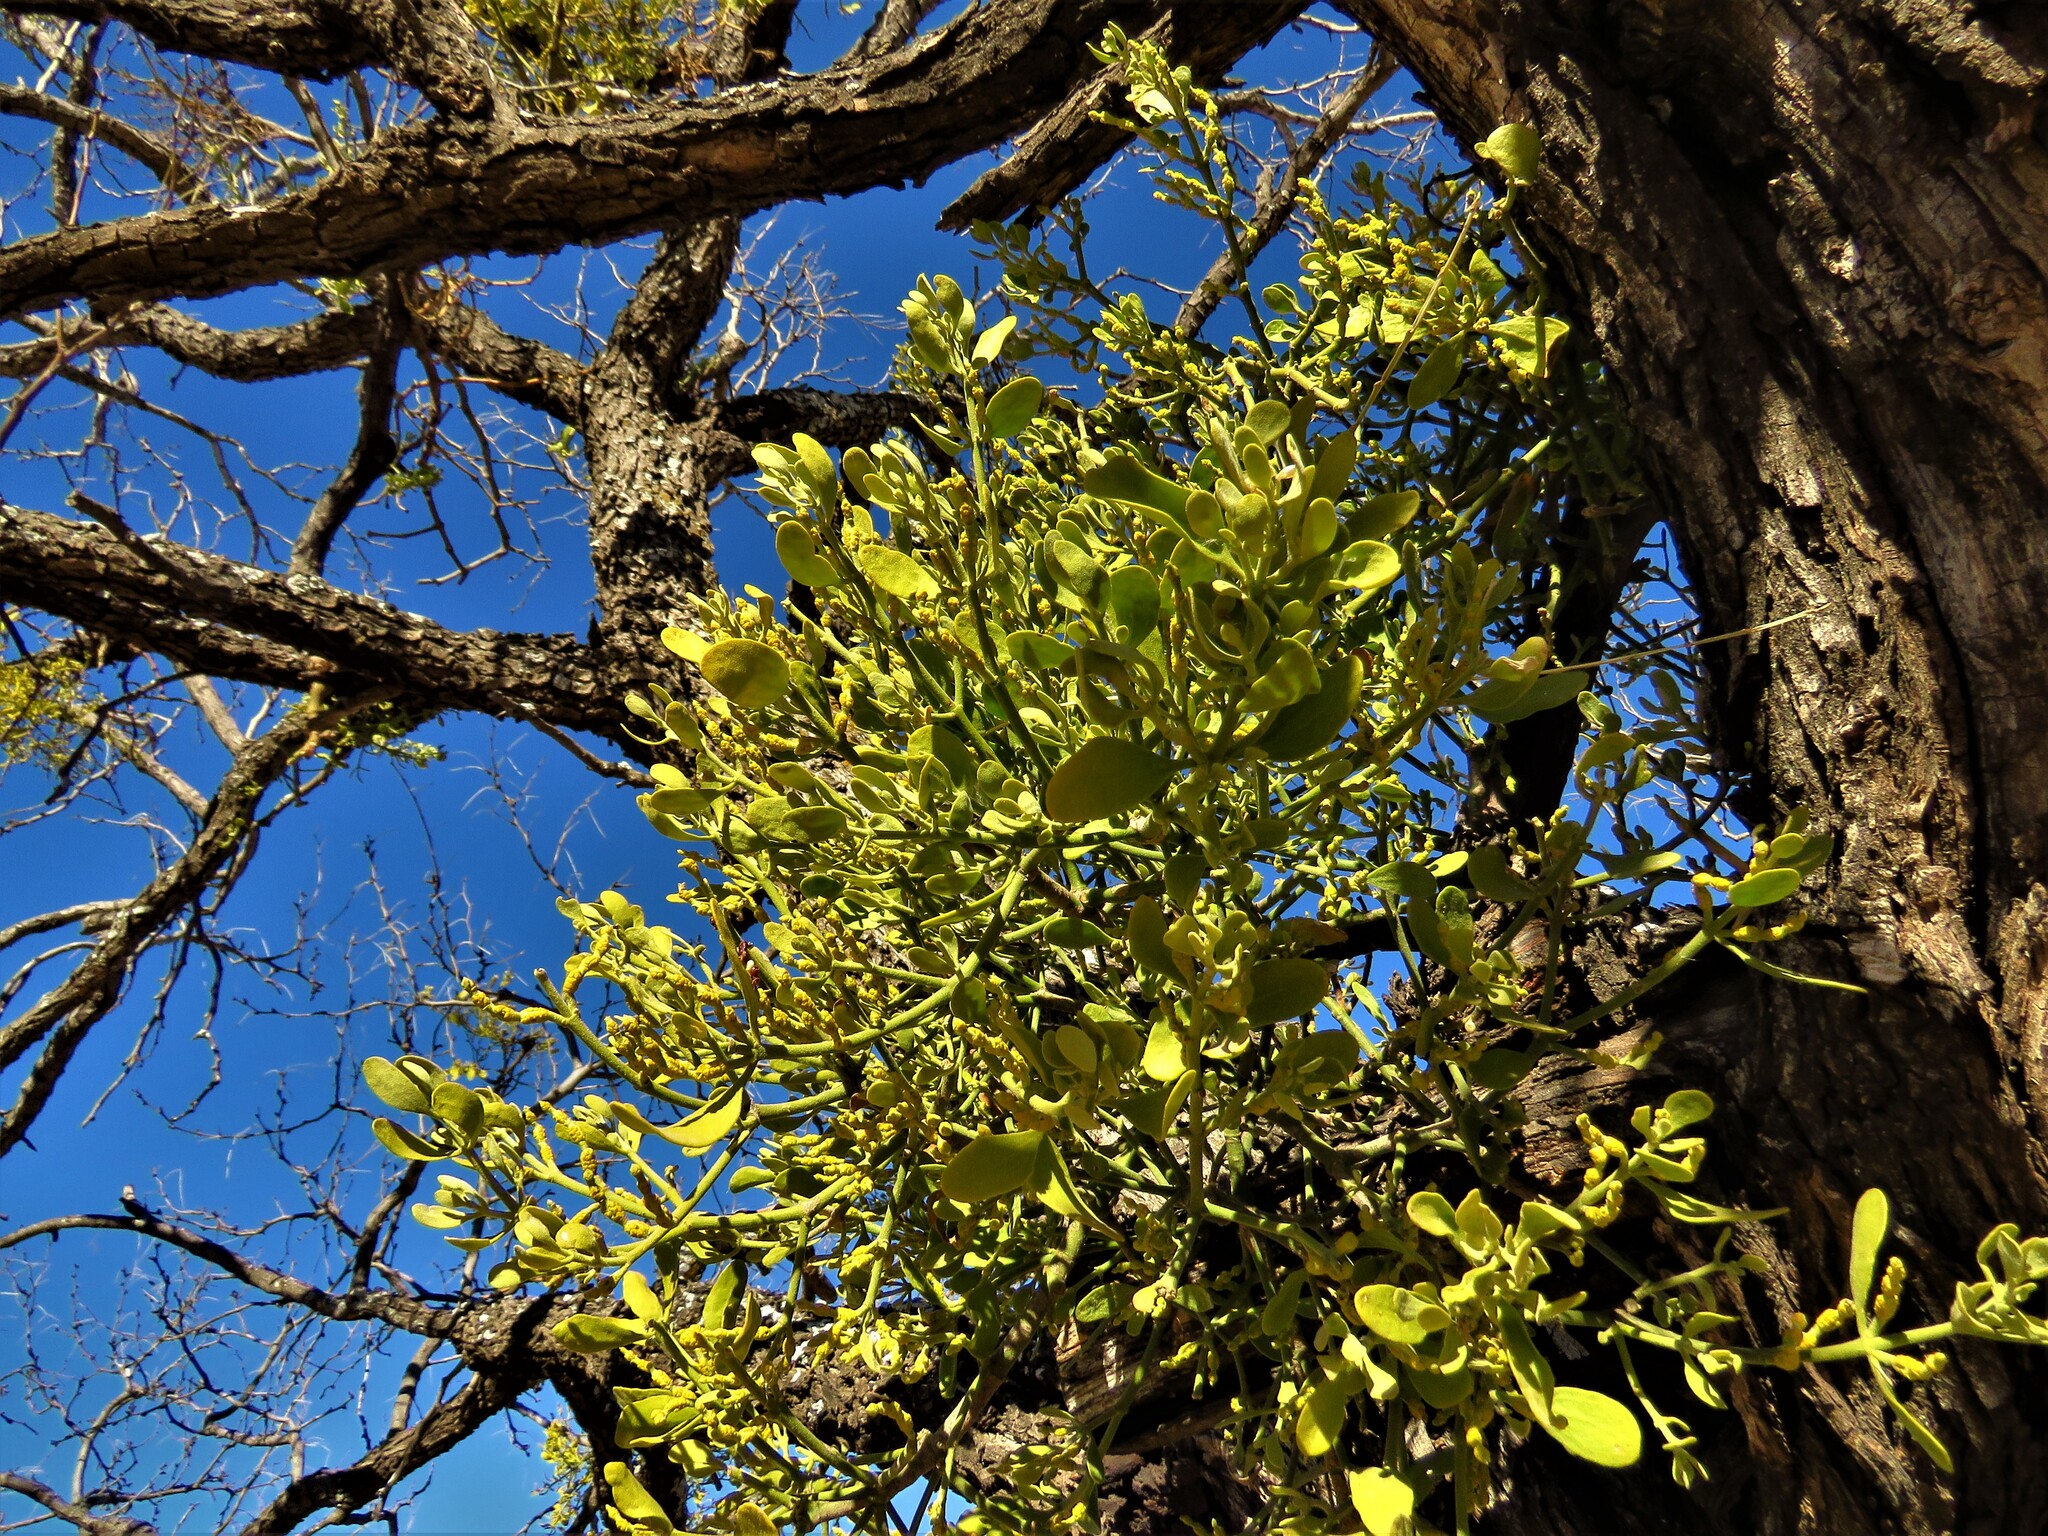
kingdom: Plantae
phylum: Tracheophyta
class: Magnoliopsida
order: Santalales
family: Viscaceae
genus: Phoradendron
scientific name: Phoradendron leucarpum
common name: Pacific mistletoe
